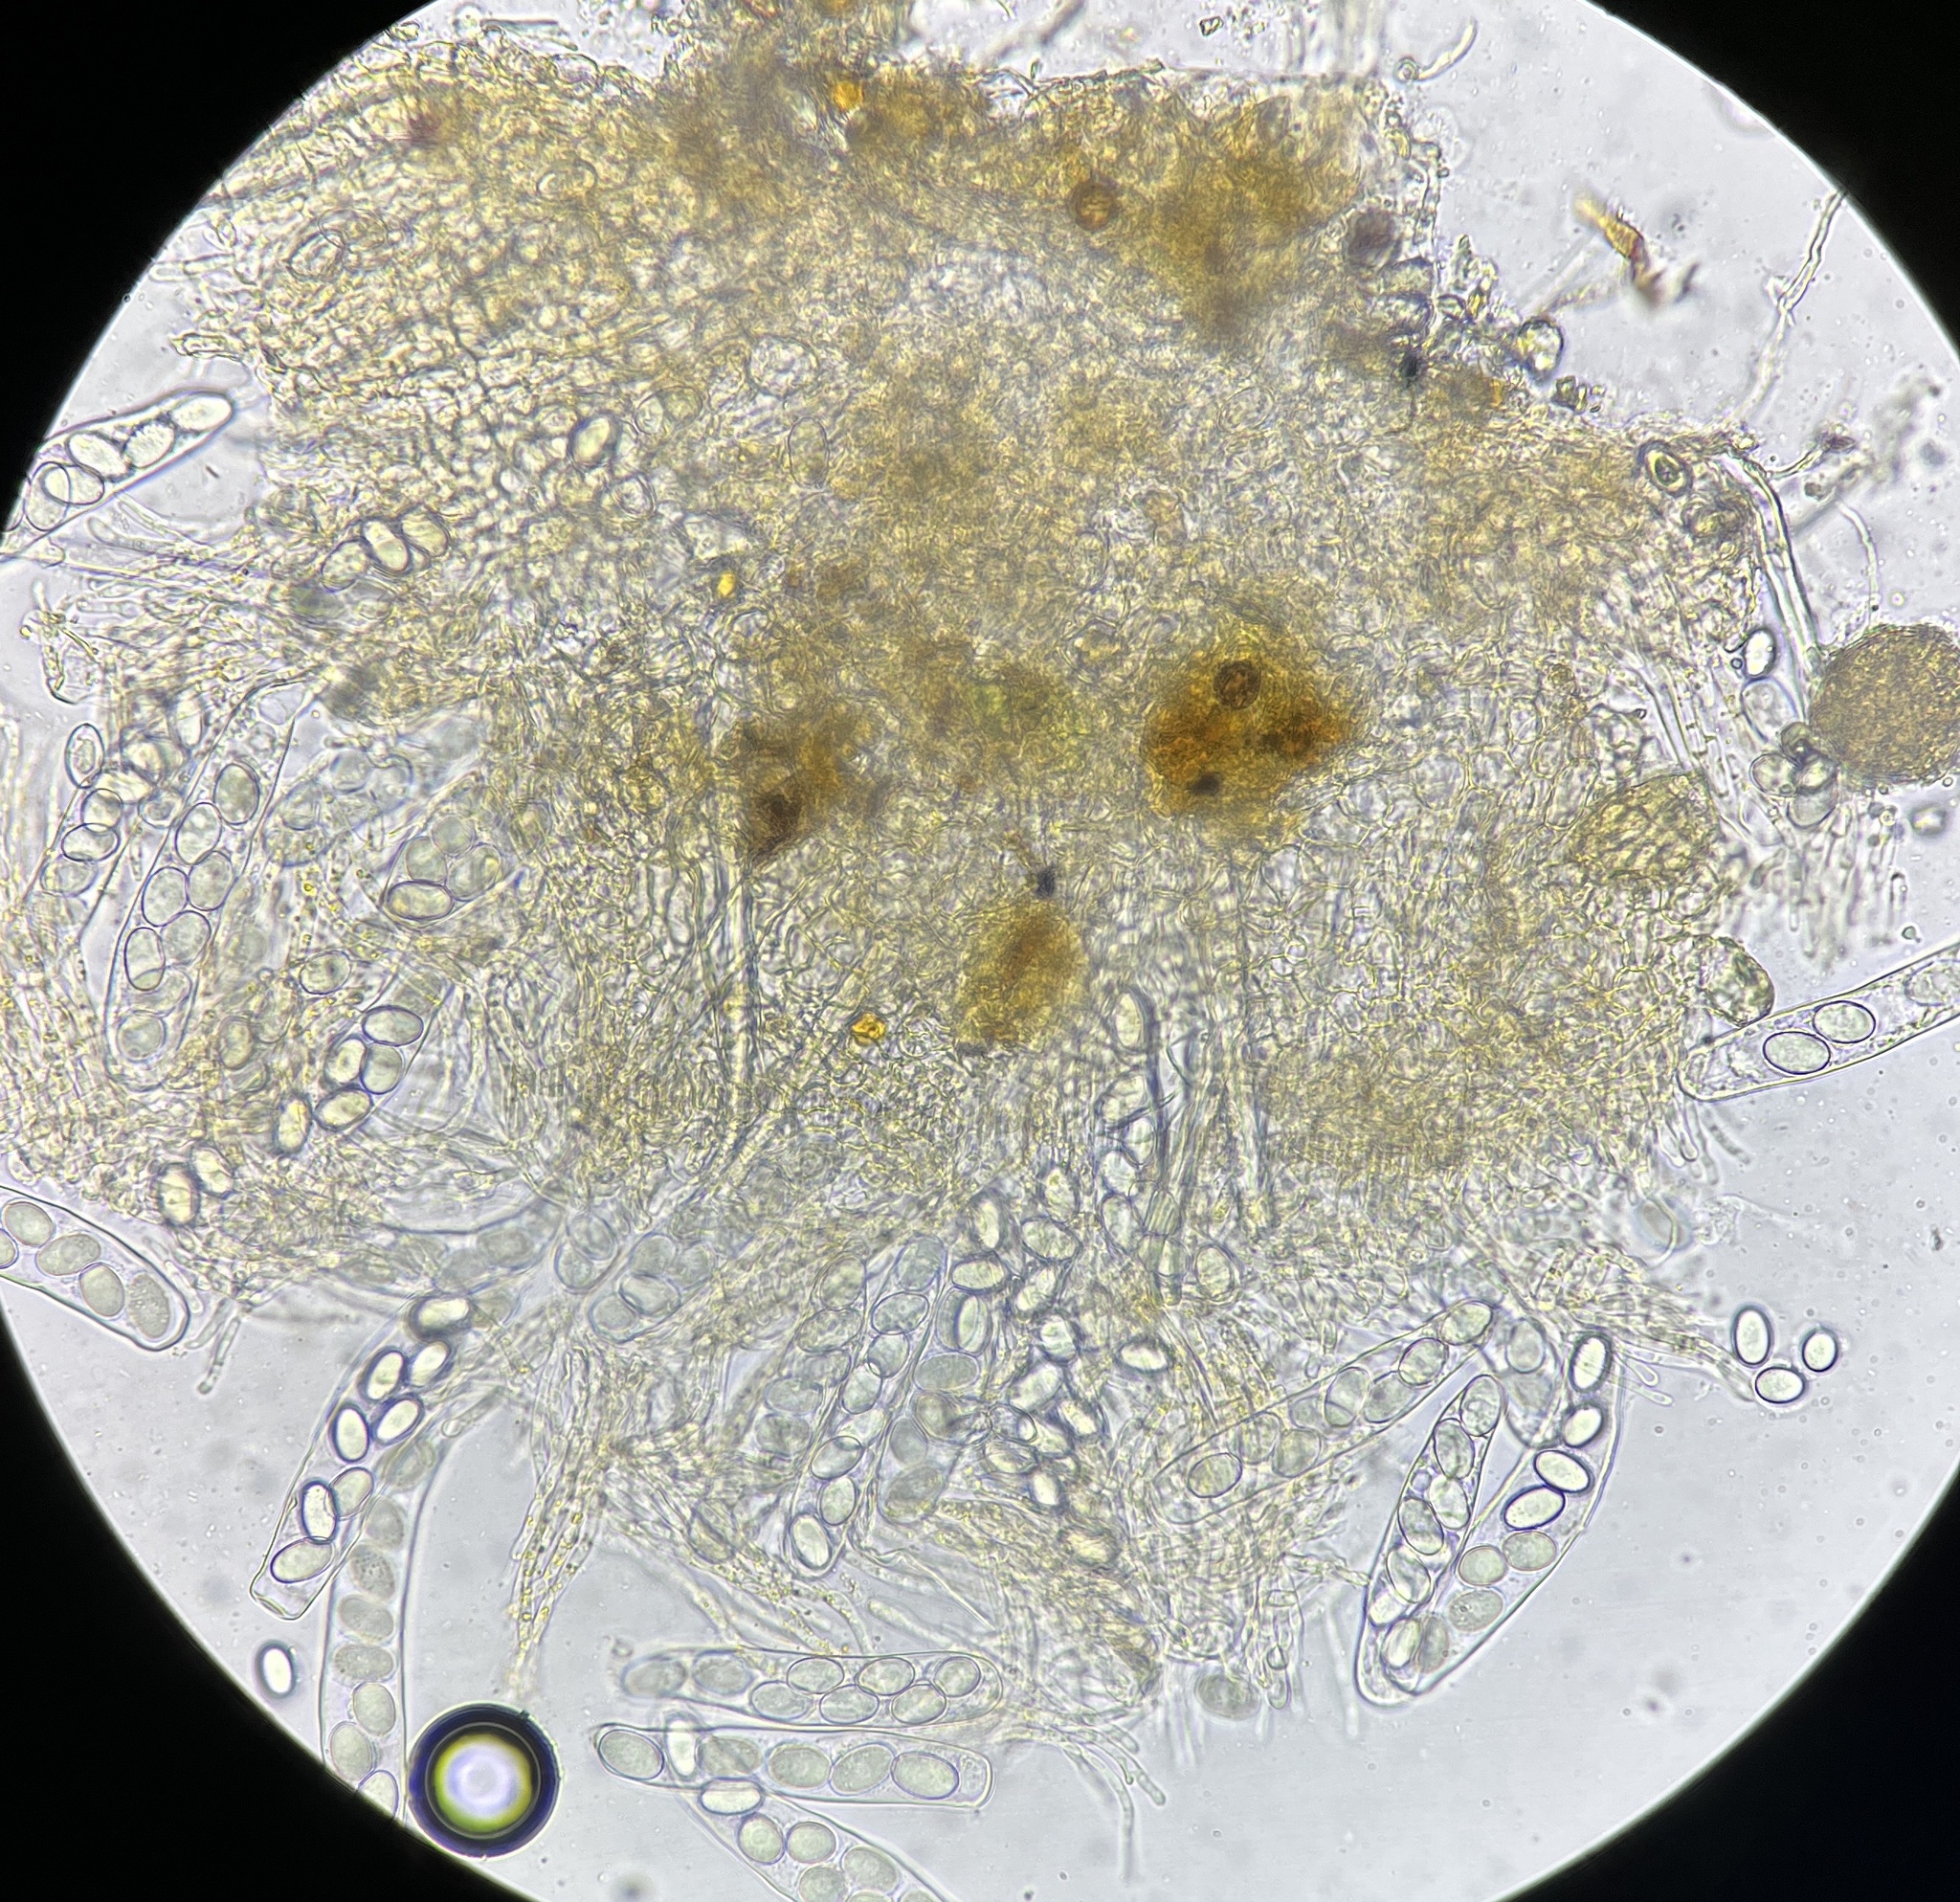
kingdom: Fungi
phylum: Ascomycota
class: Pezizomycetes
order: Pezizales
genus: Coprotus
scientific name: Coprotus ochraceus
